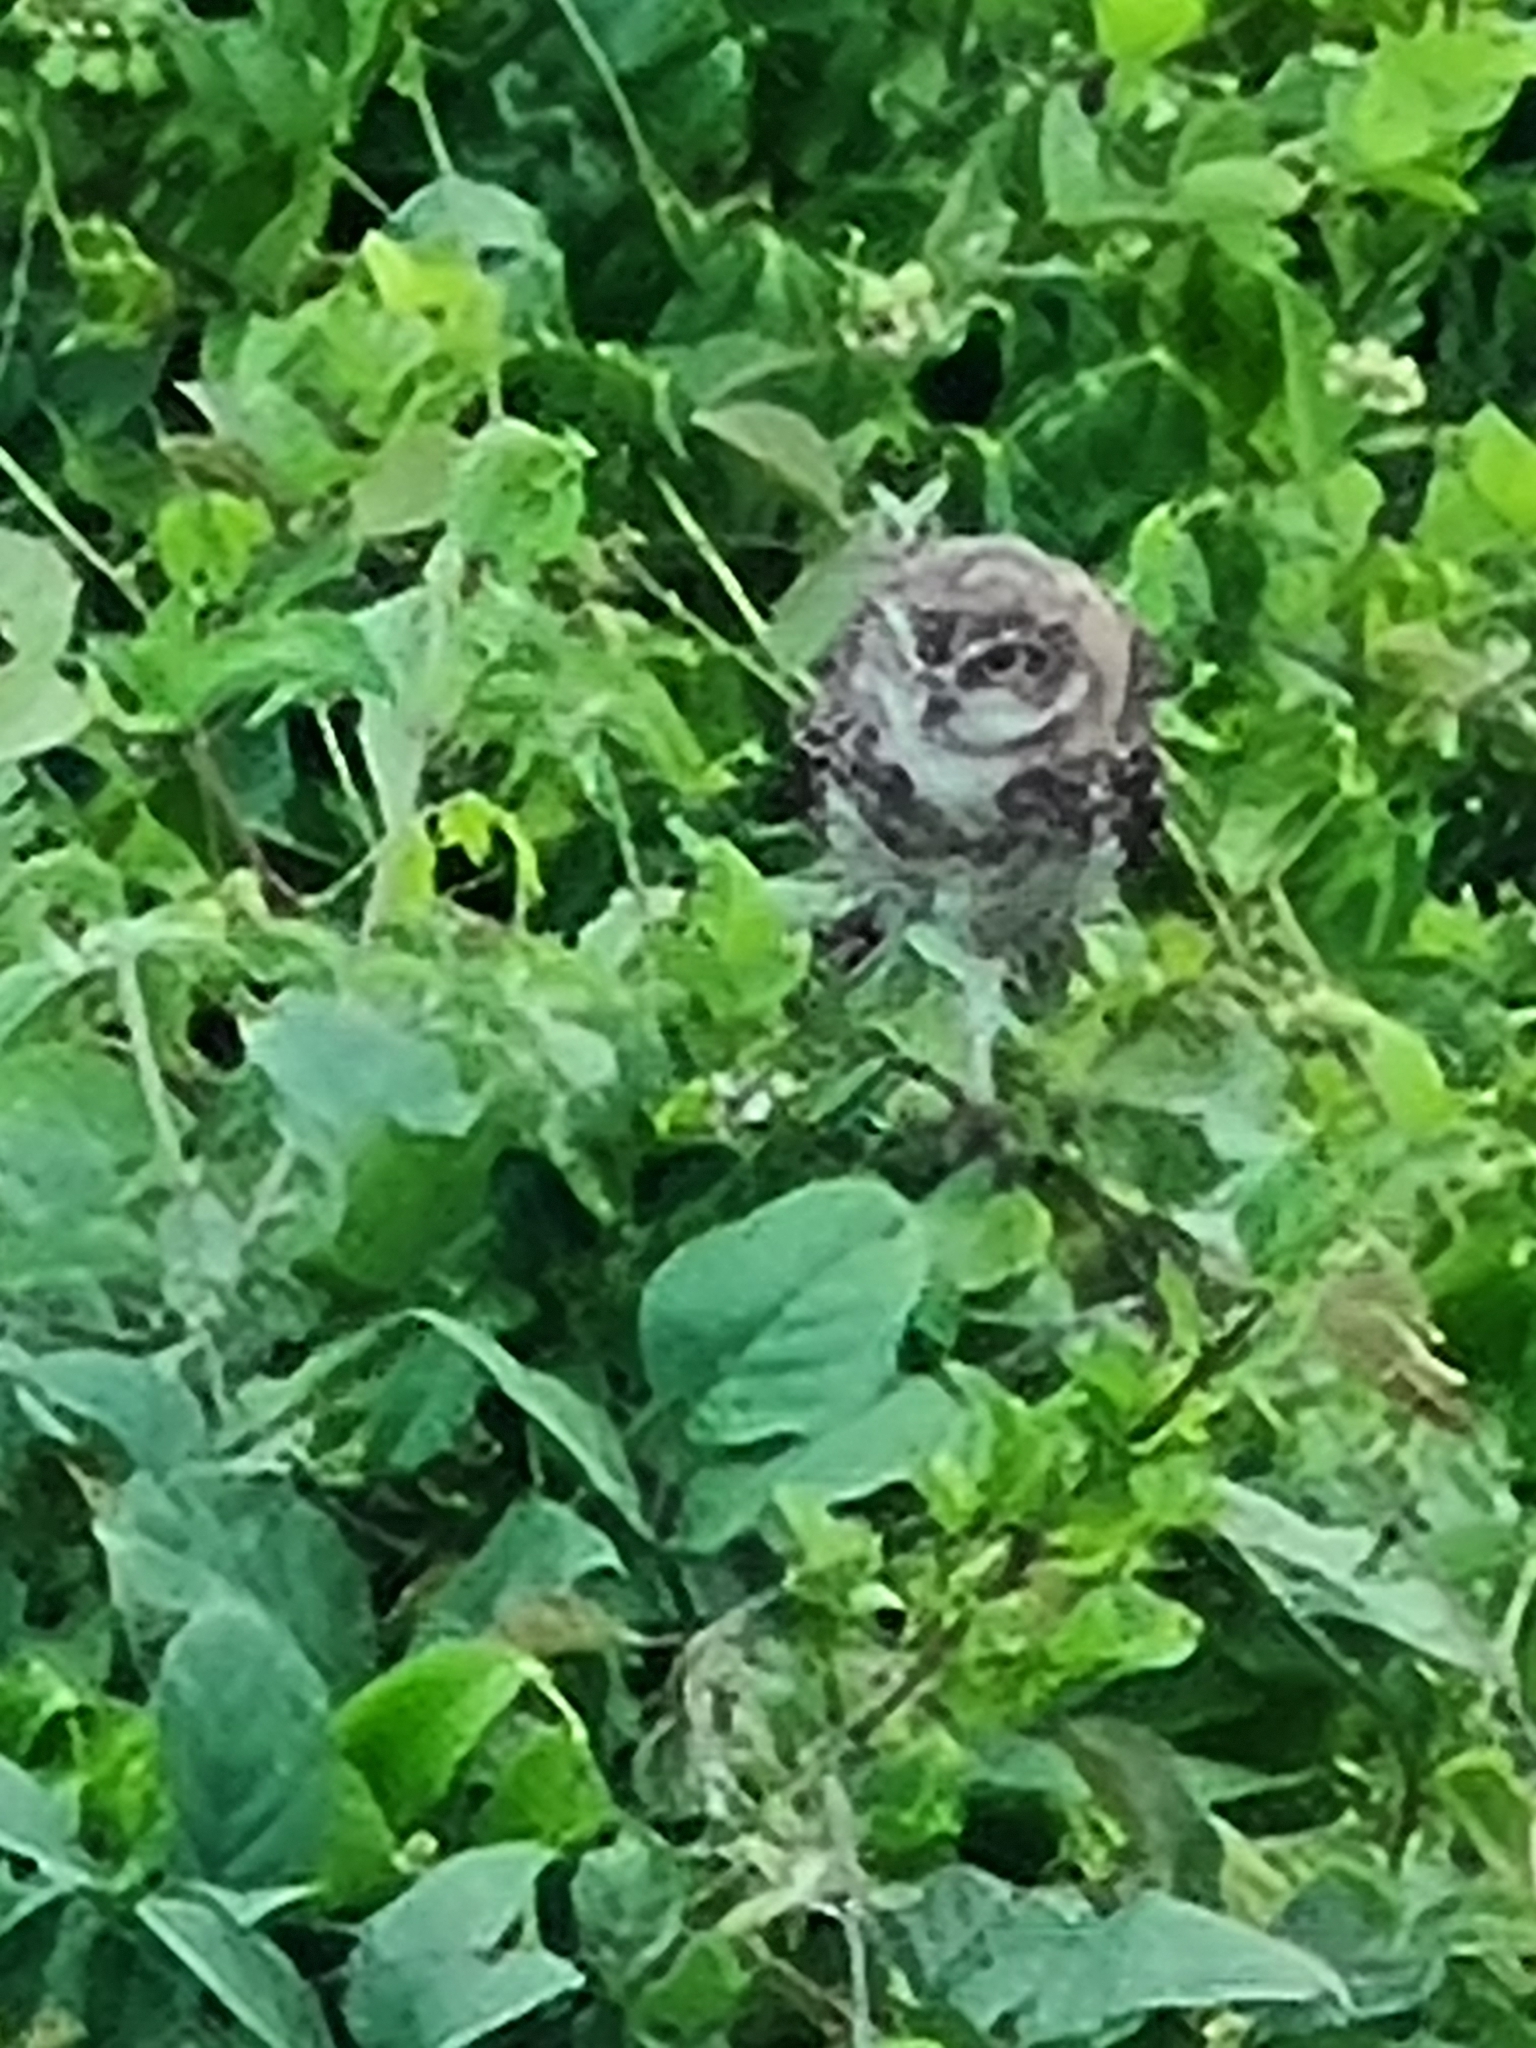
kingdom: Animalia
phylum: Chordata
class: Aves
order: Strigiformes
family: Strigidae
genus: Athene
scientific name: Athene cunicularia
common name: Burrowing owl
